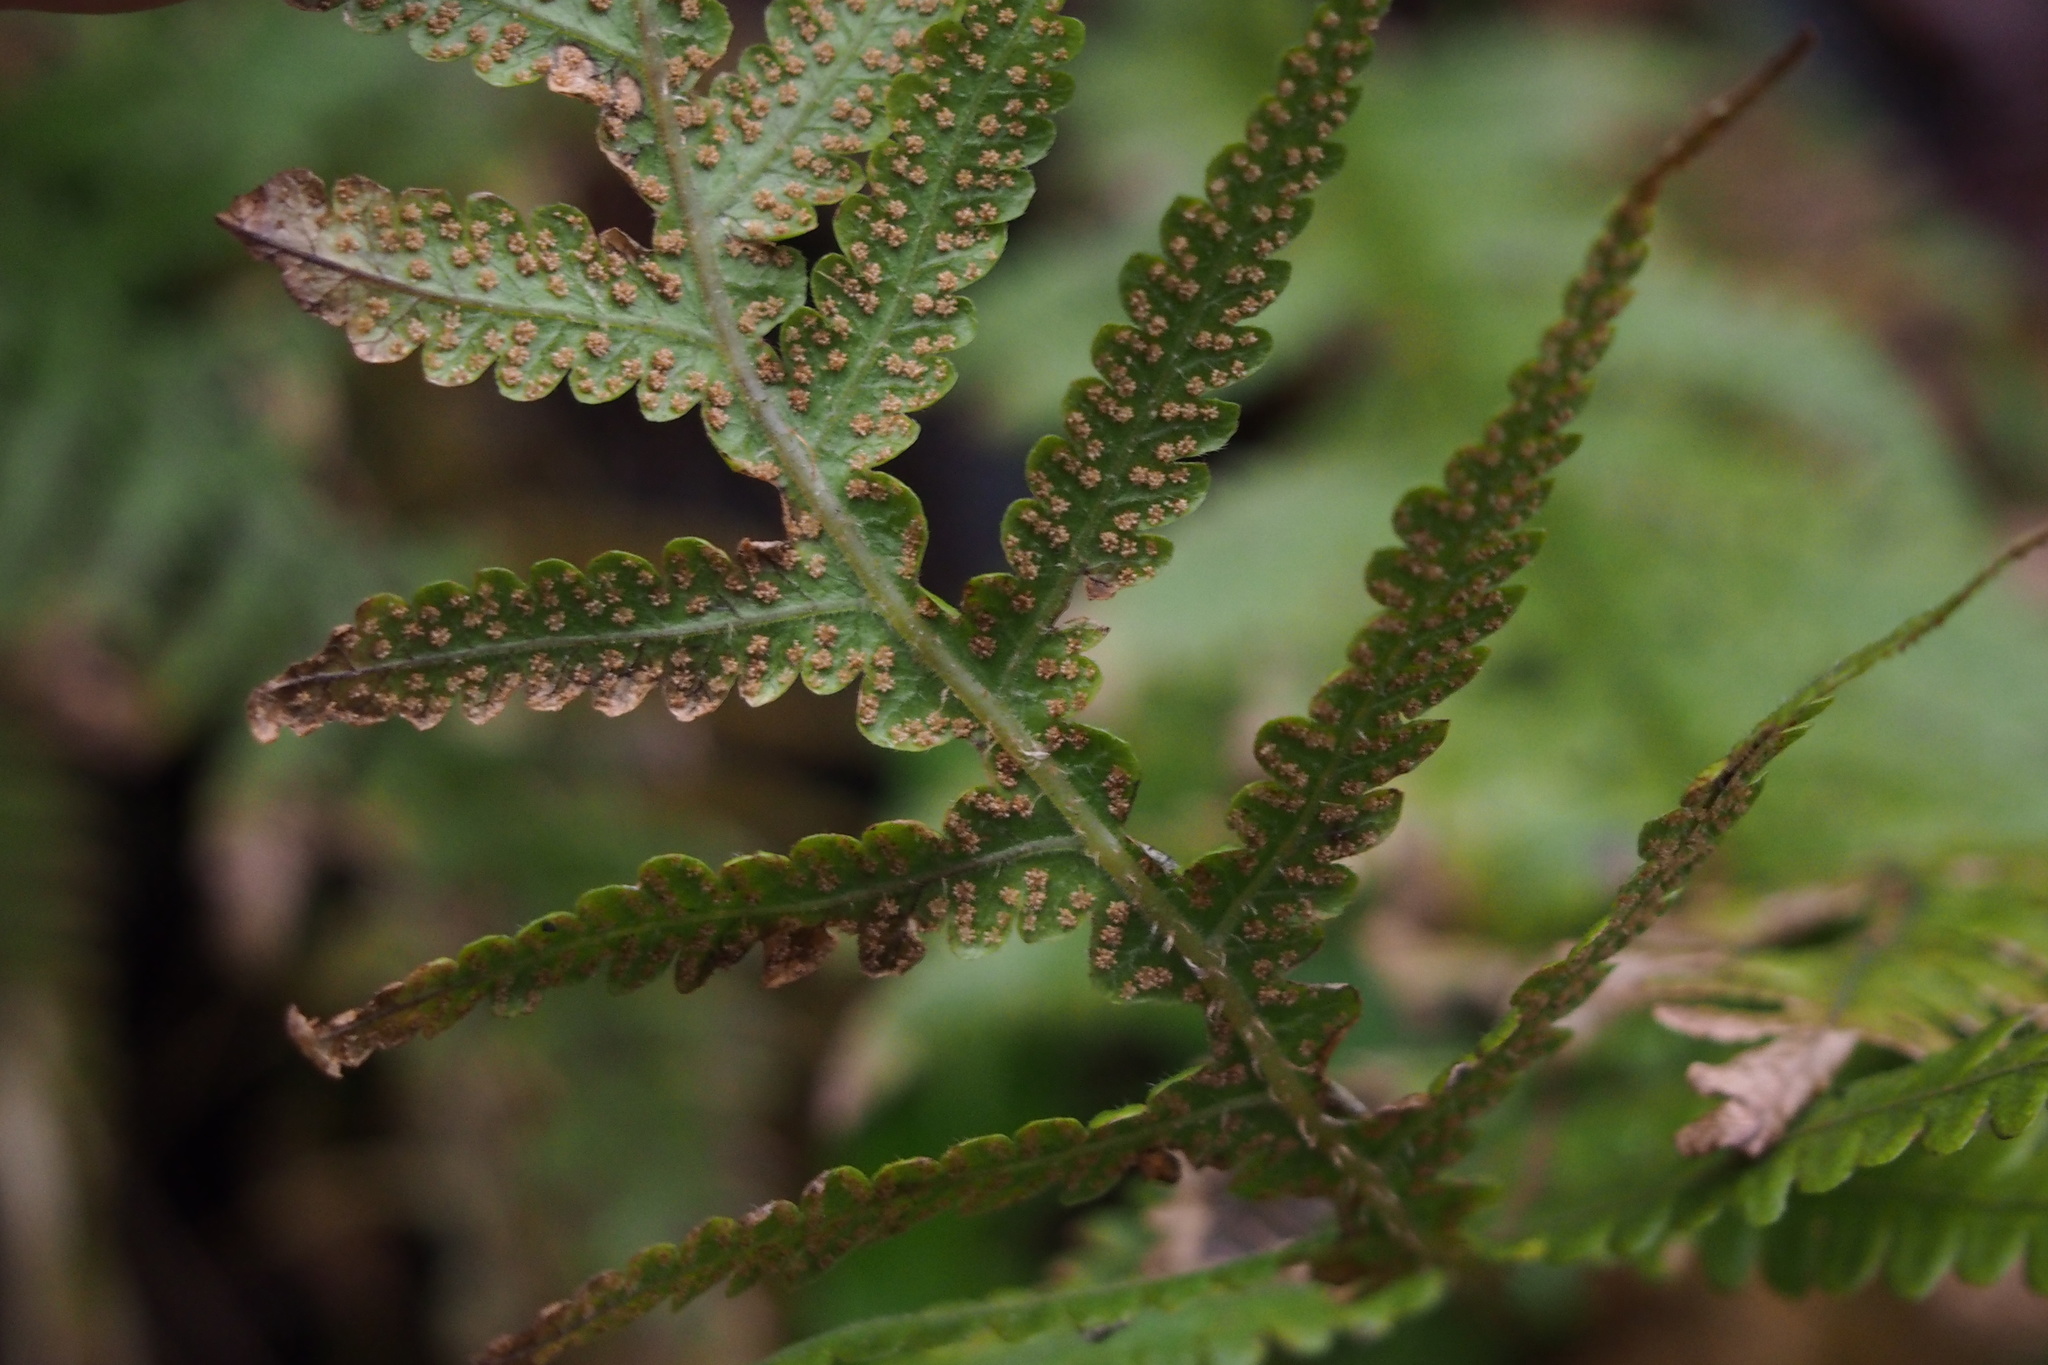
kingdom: Plantae
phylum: Tracheophyta
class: Polypodiopsida
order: Polypodiales
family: Thelypteridaceae
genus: Phegopteris
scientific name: Phegopteris decursive-pinnata
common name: Japanese beech fern
